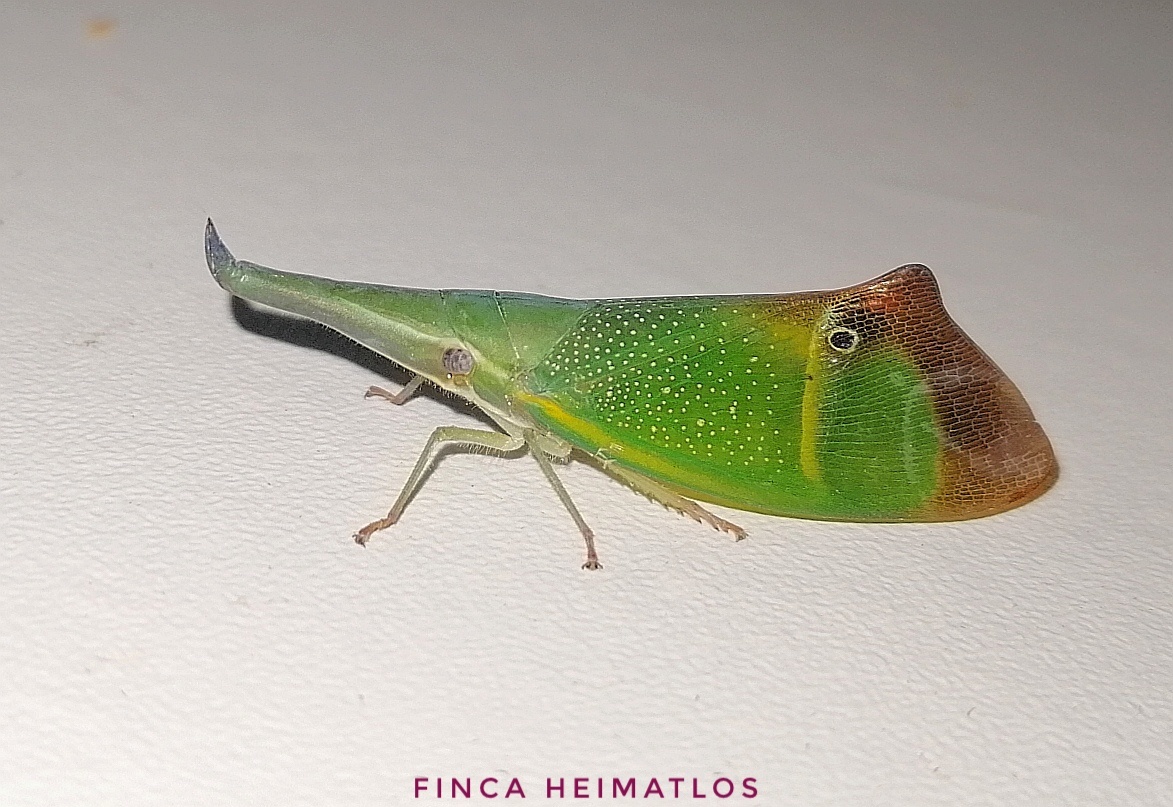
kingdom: Animalia
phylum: Arthropoda
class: Insecta
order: Hemiptera
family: Fulgoridae
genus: Odontoptera
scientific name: Odontoptera carrenoi
